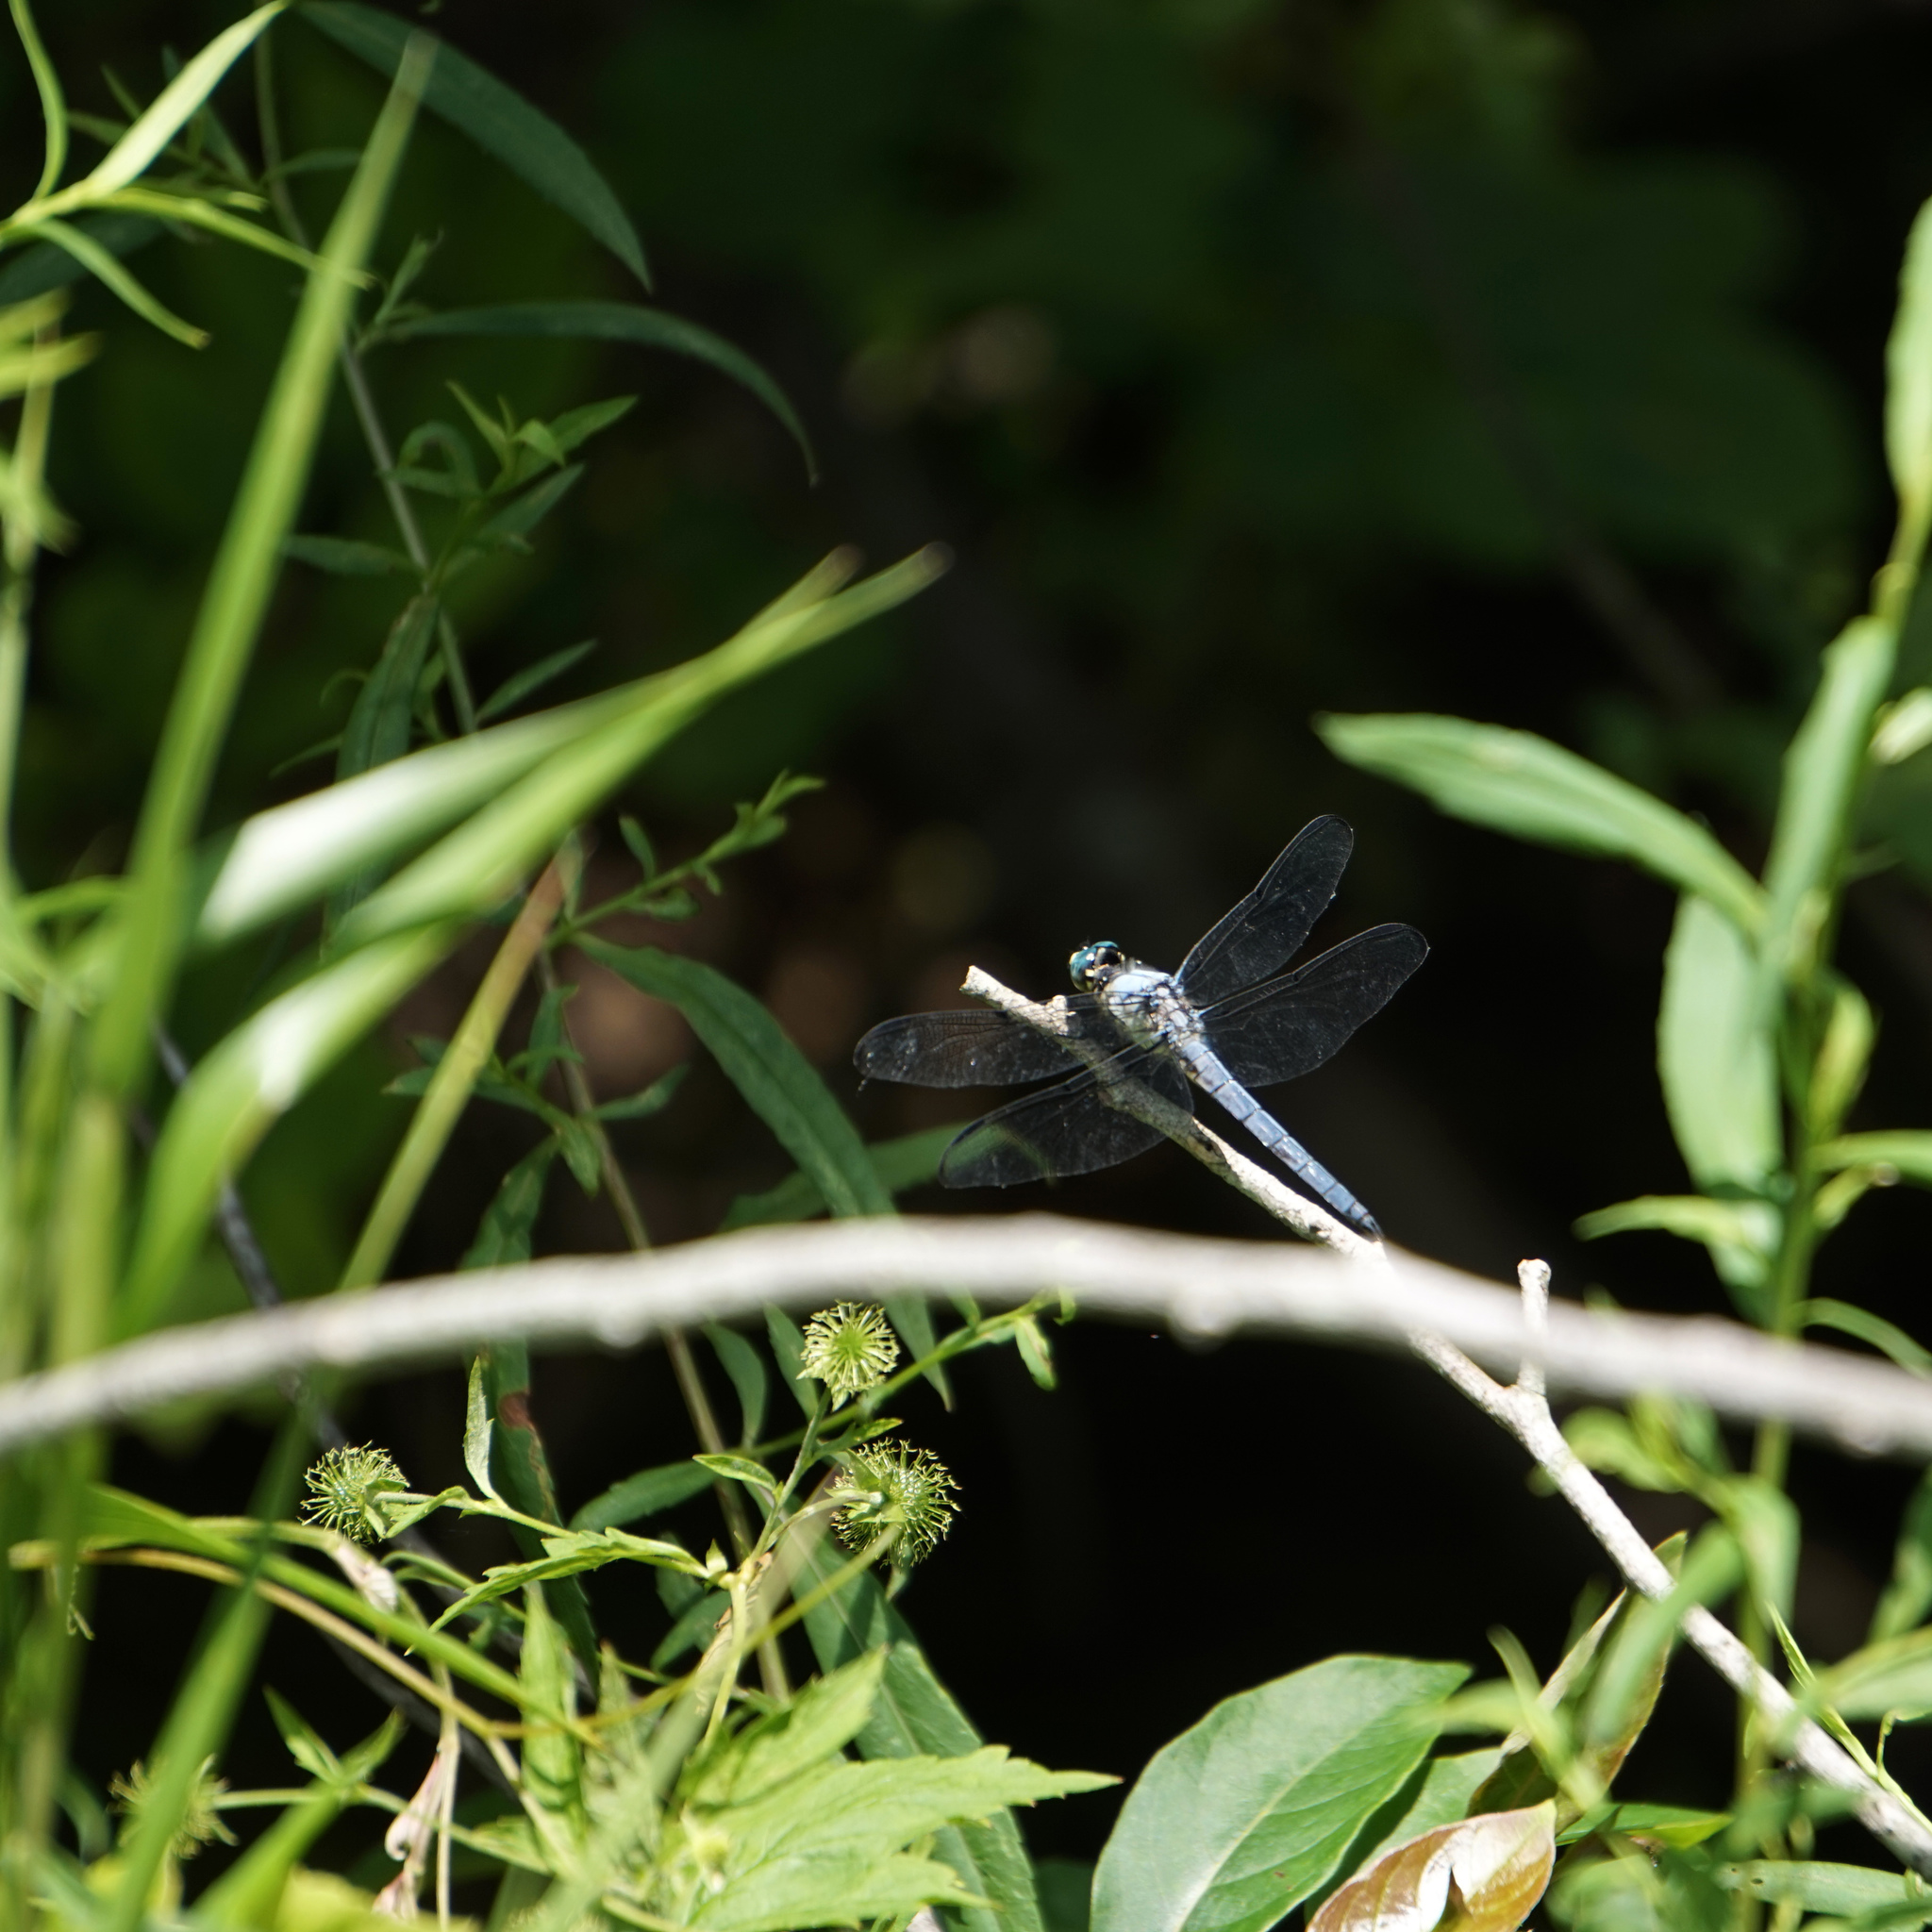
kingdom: Animalia
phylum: Arthropoda
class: Insecta
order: Odonata
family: Libellulidae
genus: Libellula
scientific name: Libellula vibrans
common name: Great blue skimmer
